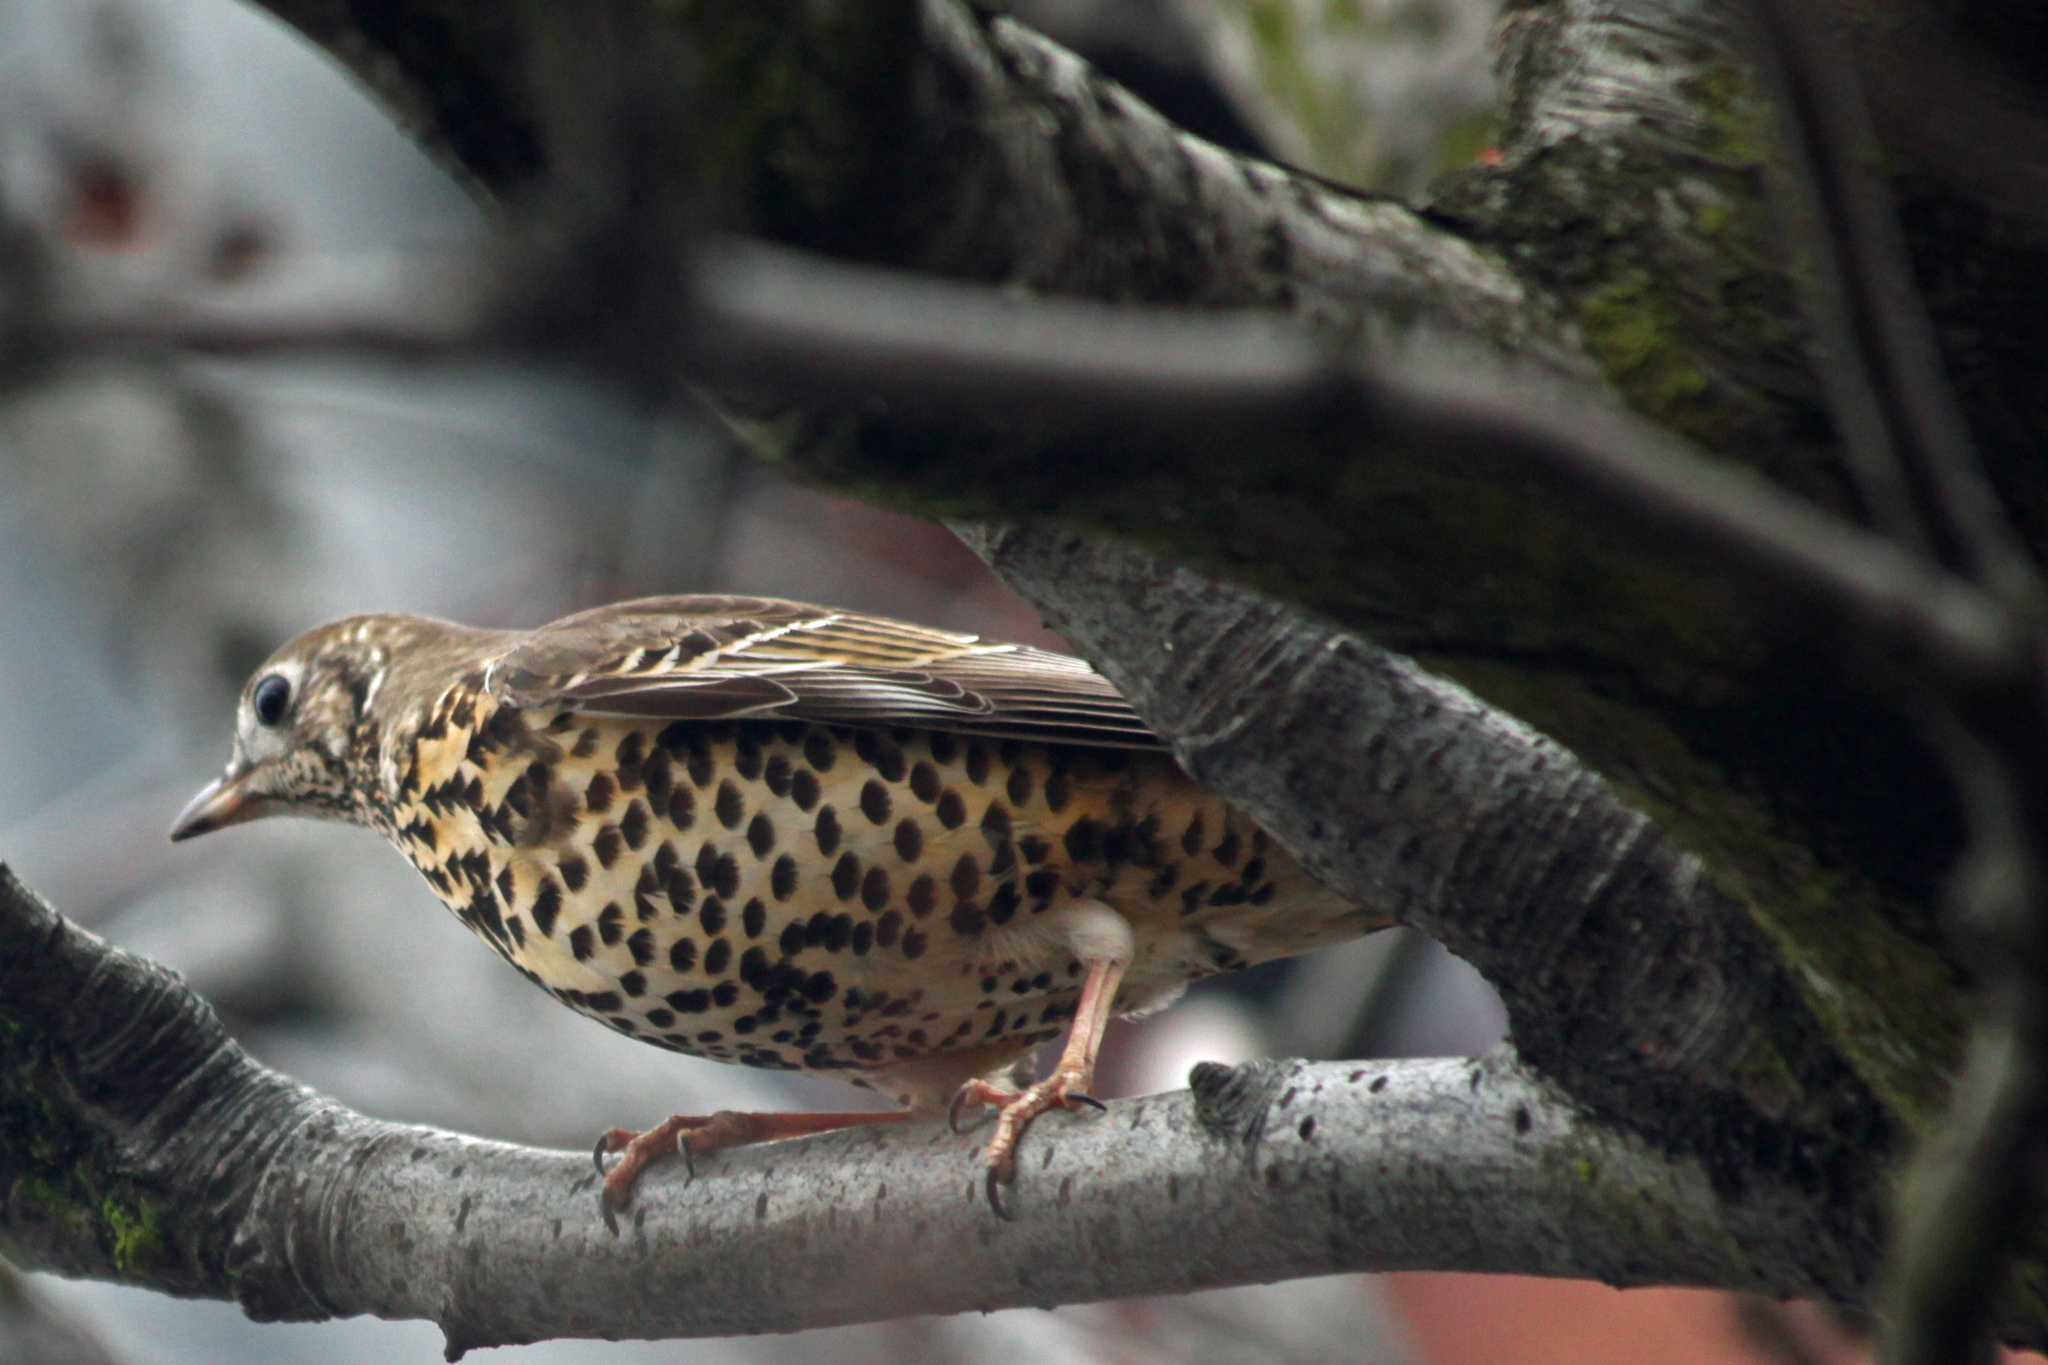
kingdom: Animalia
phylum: Chordata
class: Aves
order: Passeriformes
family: Turdidae
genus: Turdus
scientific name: Turdus viscivorus
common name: Mistle thrush
